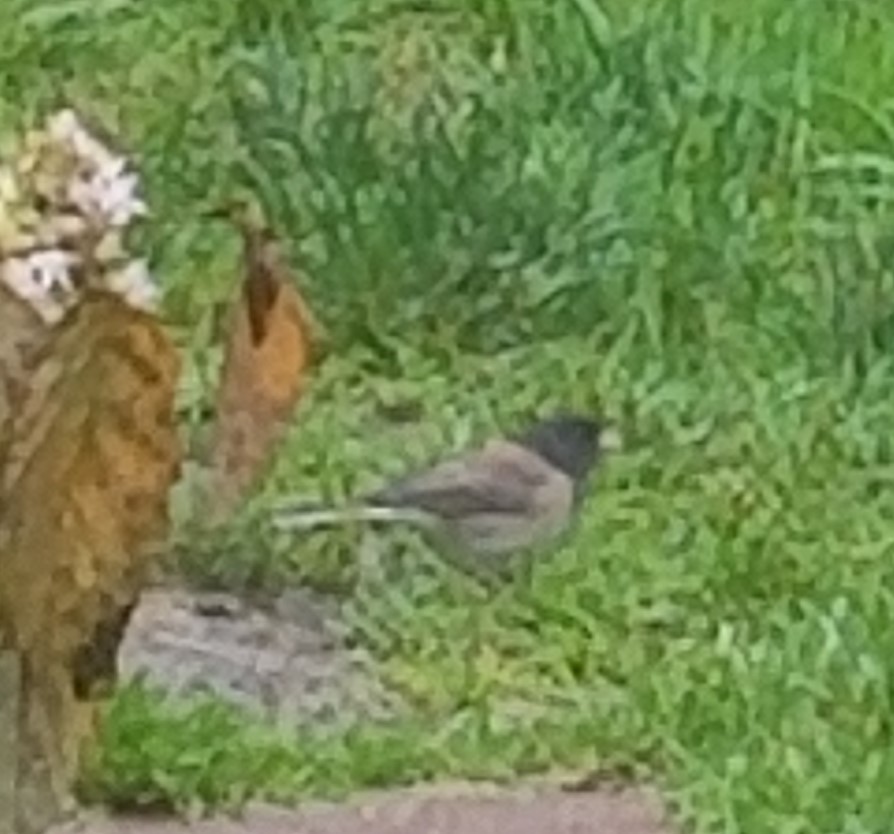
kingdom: Animalia
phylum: Chordata
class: Aves
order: Passeriformes
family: Passerellidae
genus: Junco
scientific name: Junco hyemalis
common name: Dark-eyed junco
